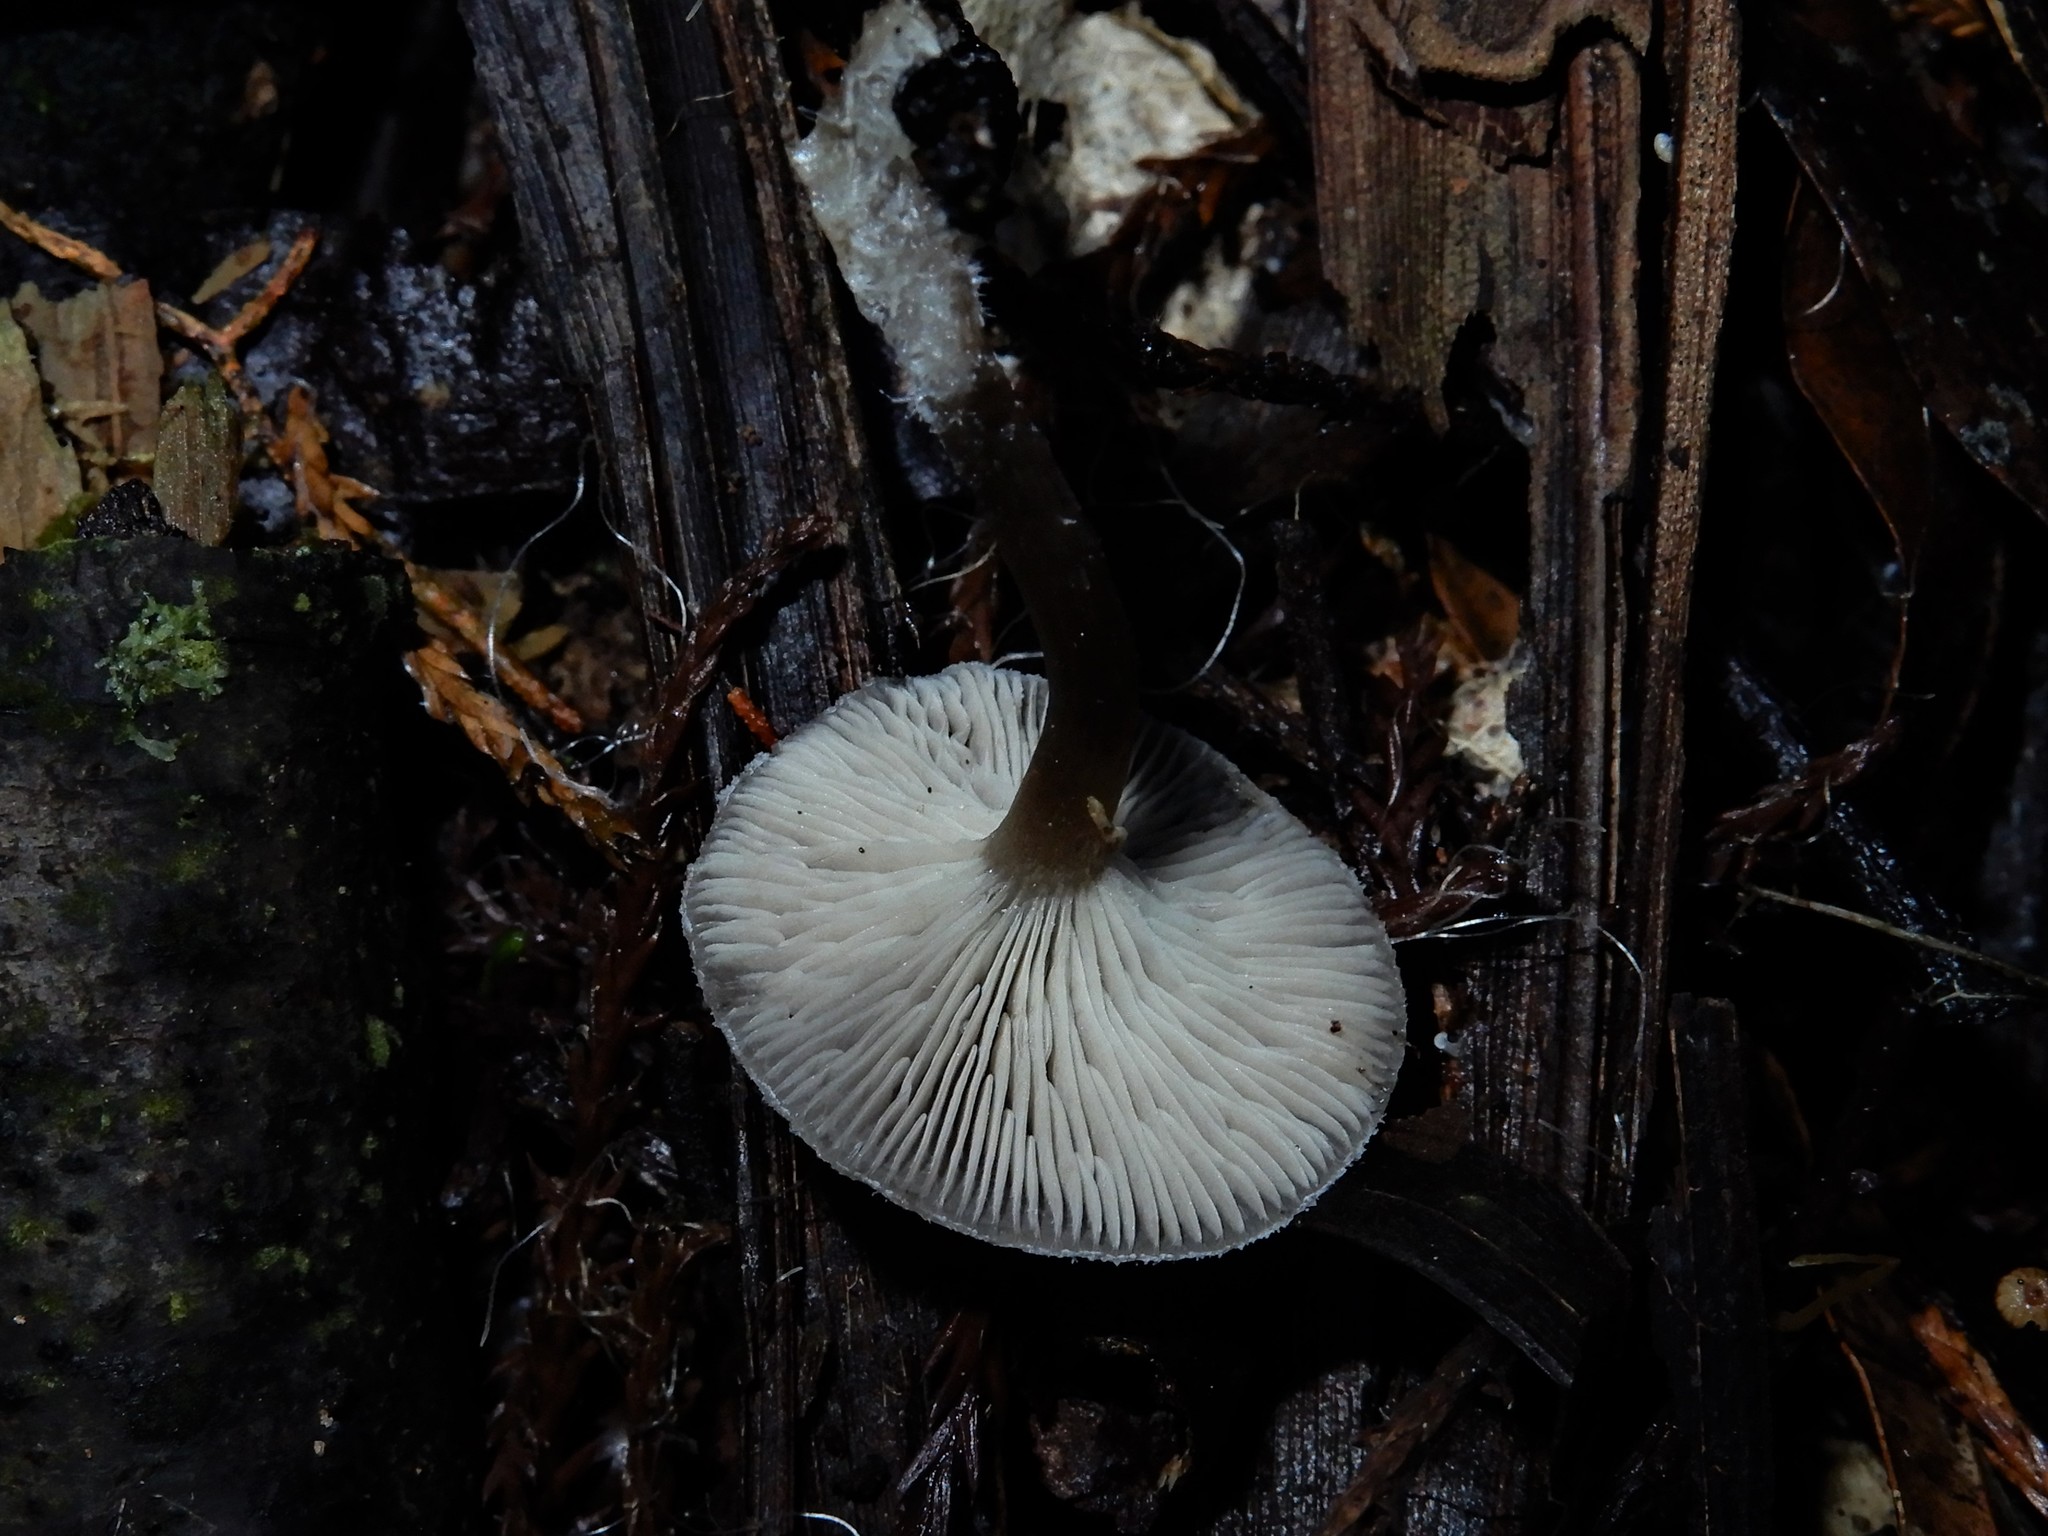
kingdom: Fungi
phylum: Basidiomycota
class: Agaricomycetes
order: Agaricales
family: Tricholomataceae
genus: Pseudolyophyllum
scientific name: Pseudolyophyllum
